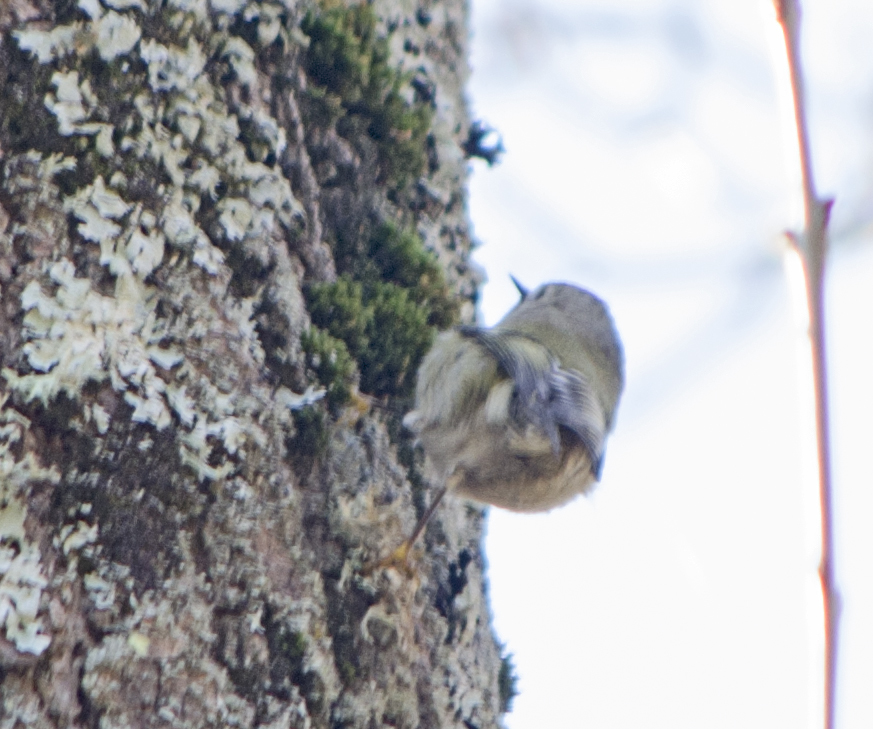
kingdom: Animalia
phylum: Chordata
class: Aves
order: Passeriformes
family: Regulidae
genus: Regulus
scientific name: Regulus regulus
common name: Goldcrest
